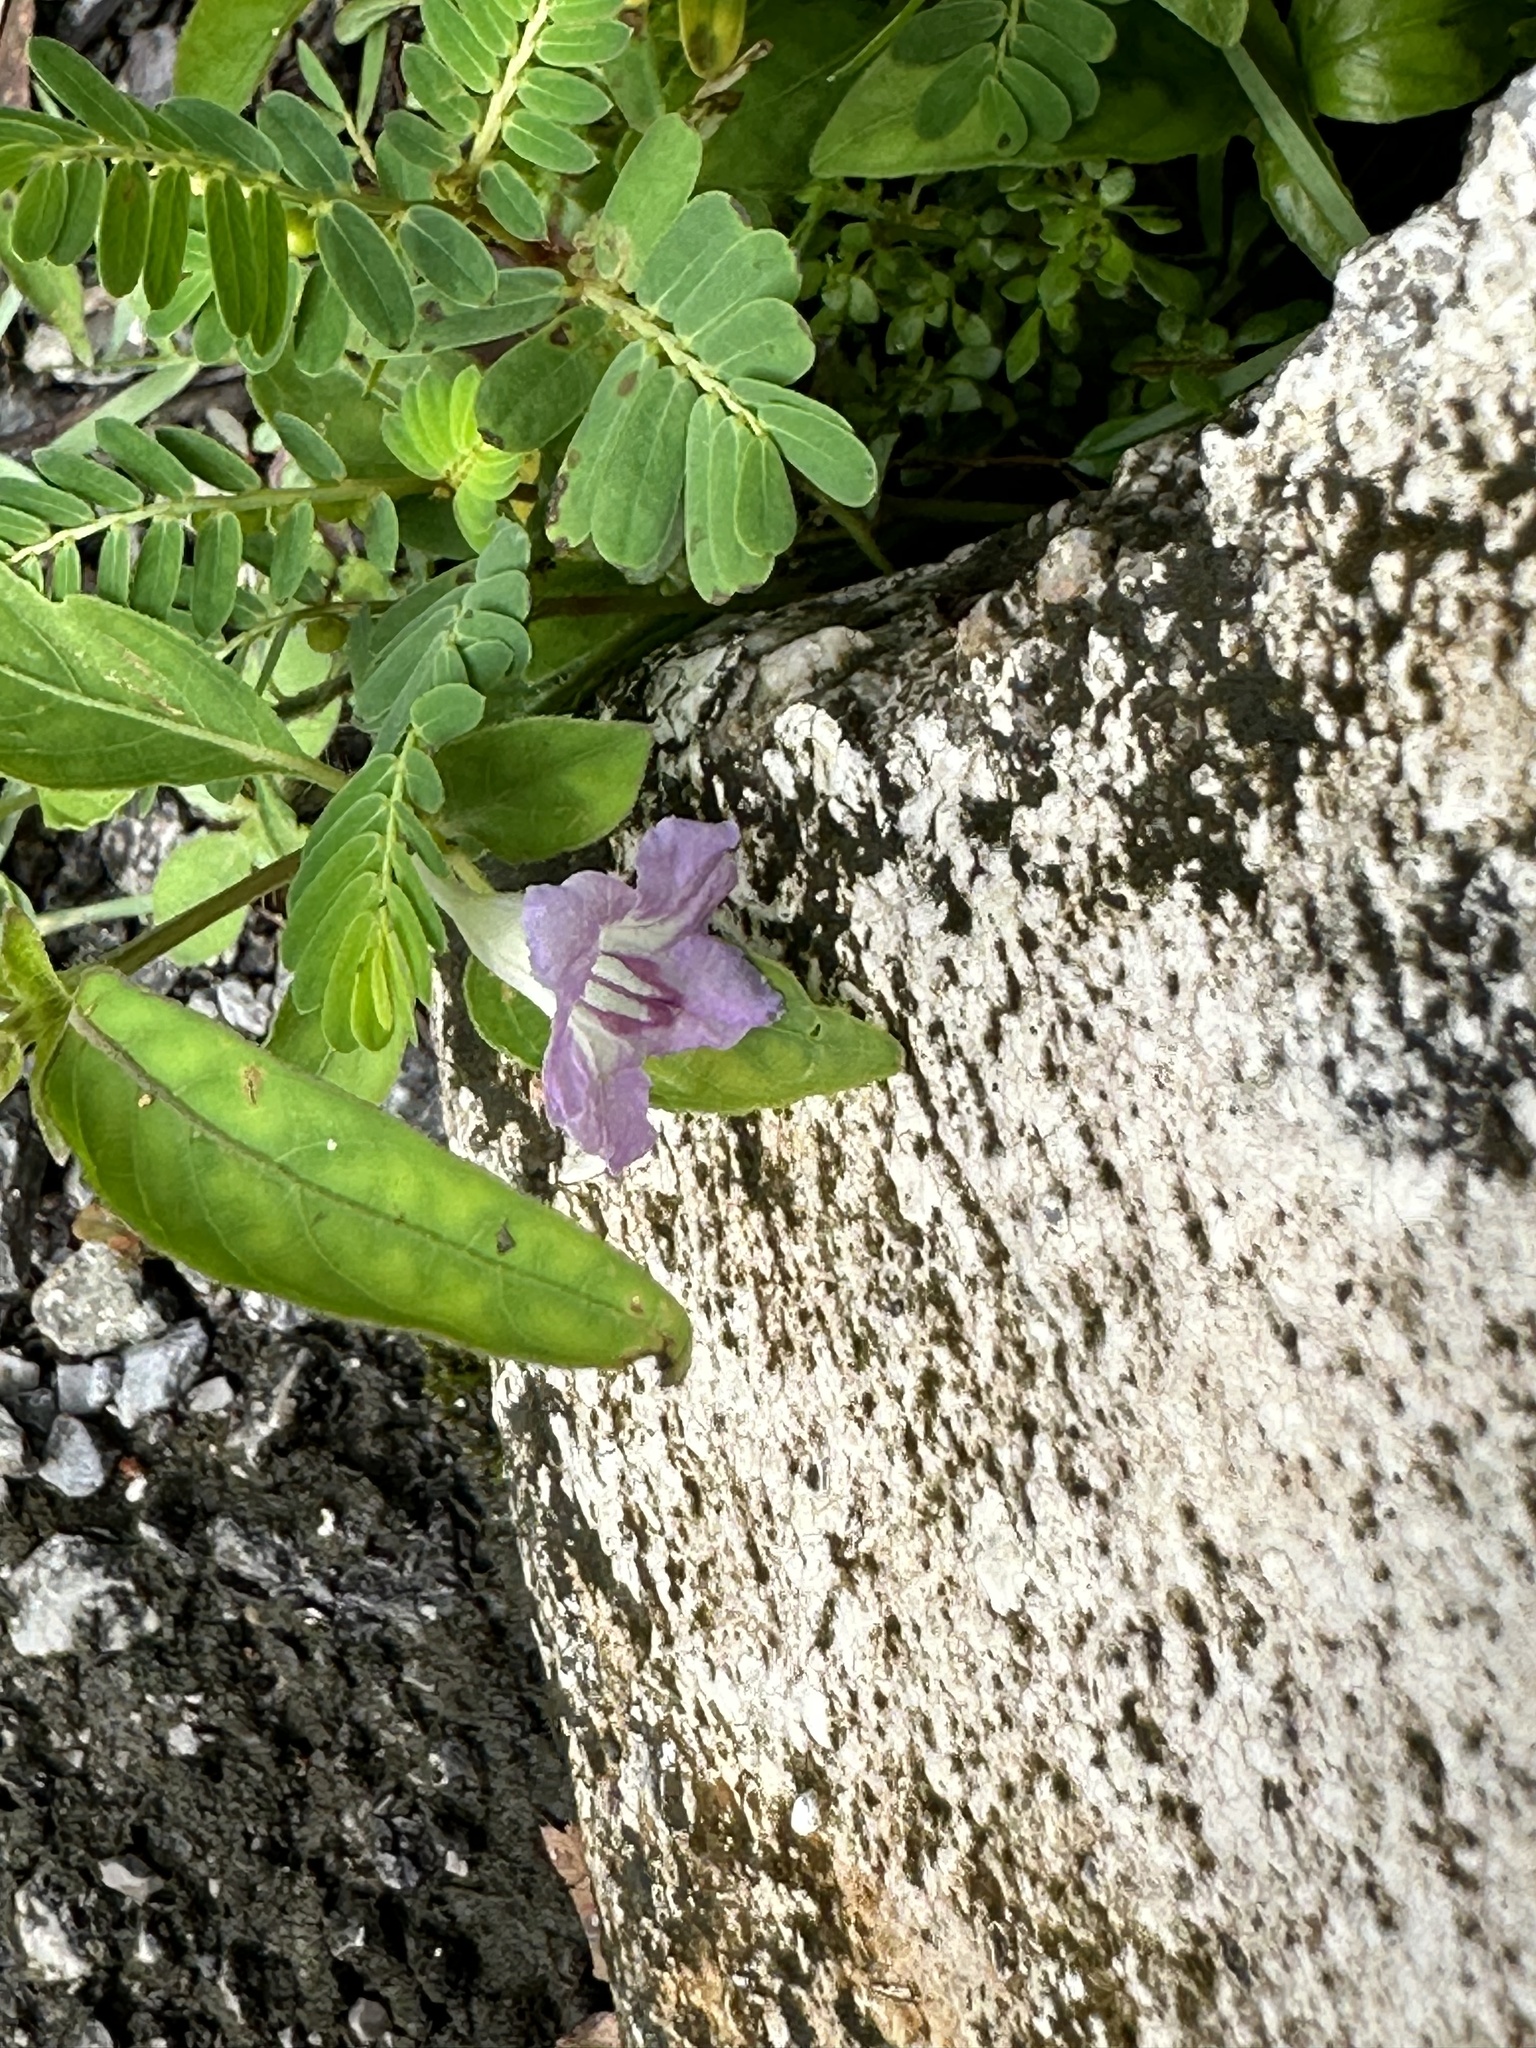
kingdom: Plantae
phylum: Tracheophyta
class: Magnoliopsida
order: Lamiales
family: Acanthaceae
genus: Ruellia
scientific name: Ruellia repens
